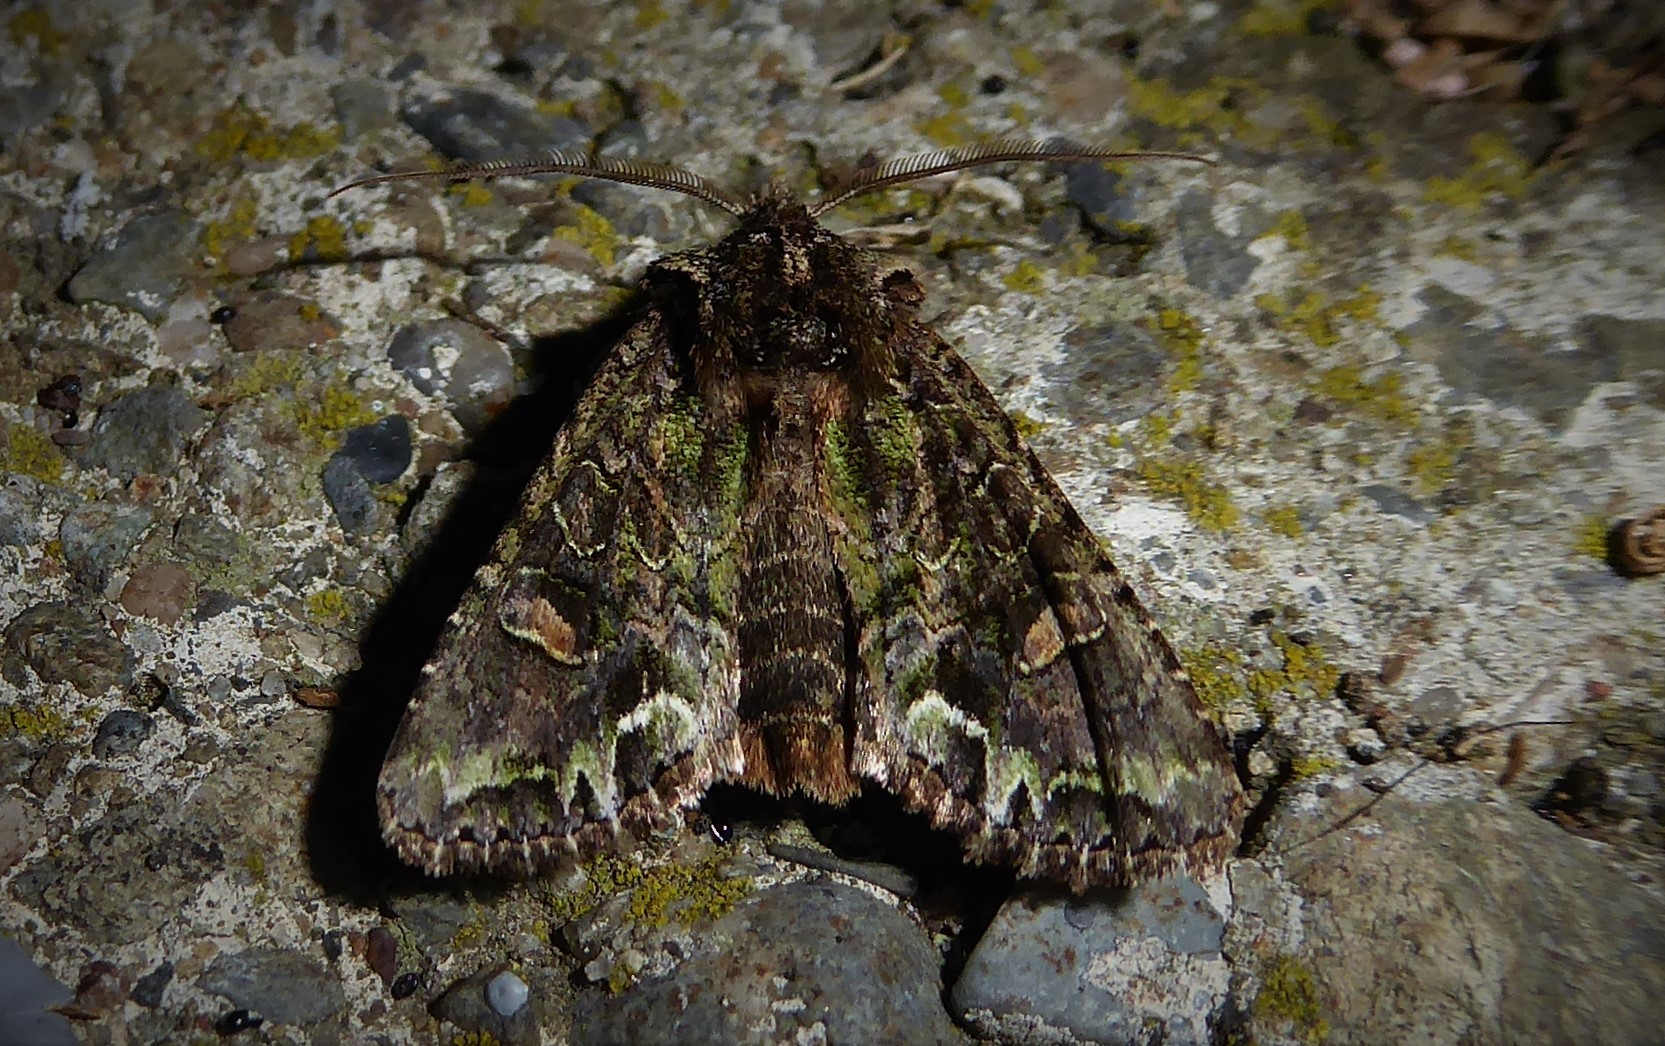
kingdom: Animalia
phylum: Arthropoda
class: Insecta
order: Lepidoptera
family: Noctuidae
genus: Ichneutica
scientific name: Ichneutica insignis
